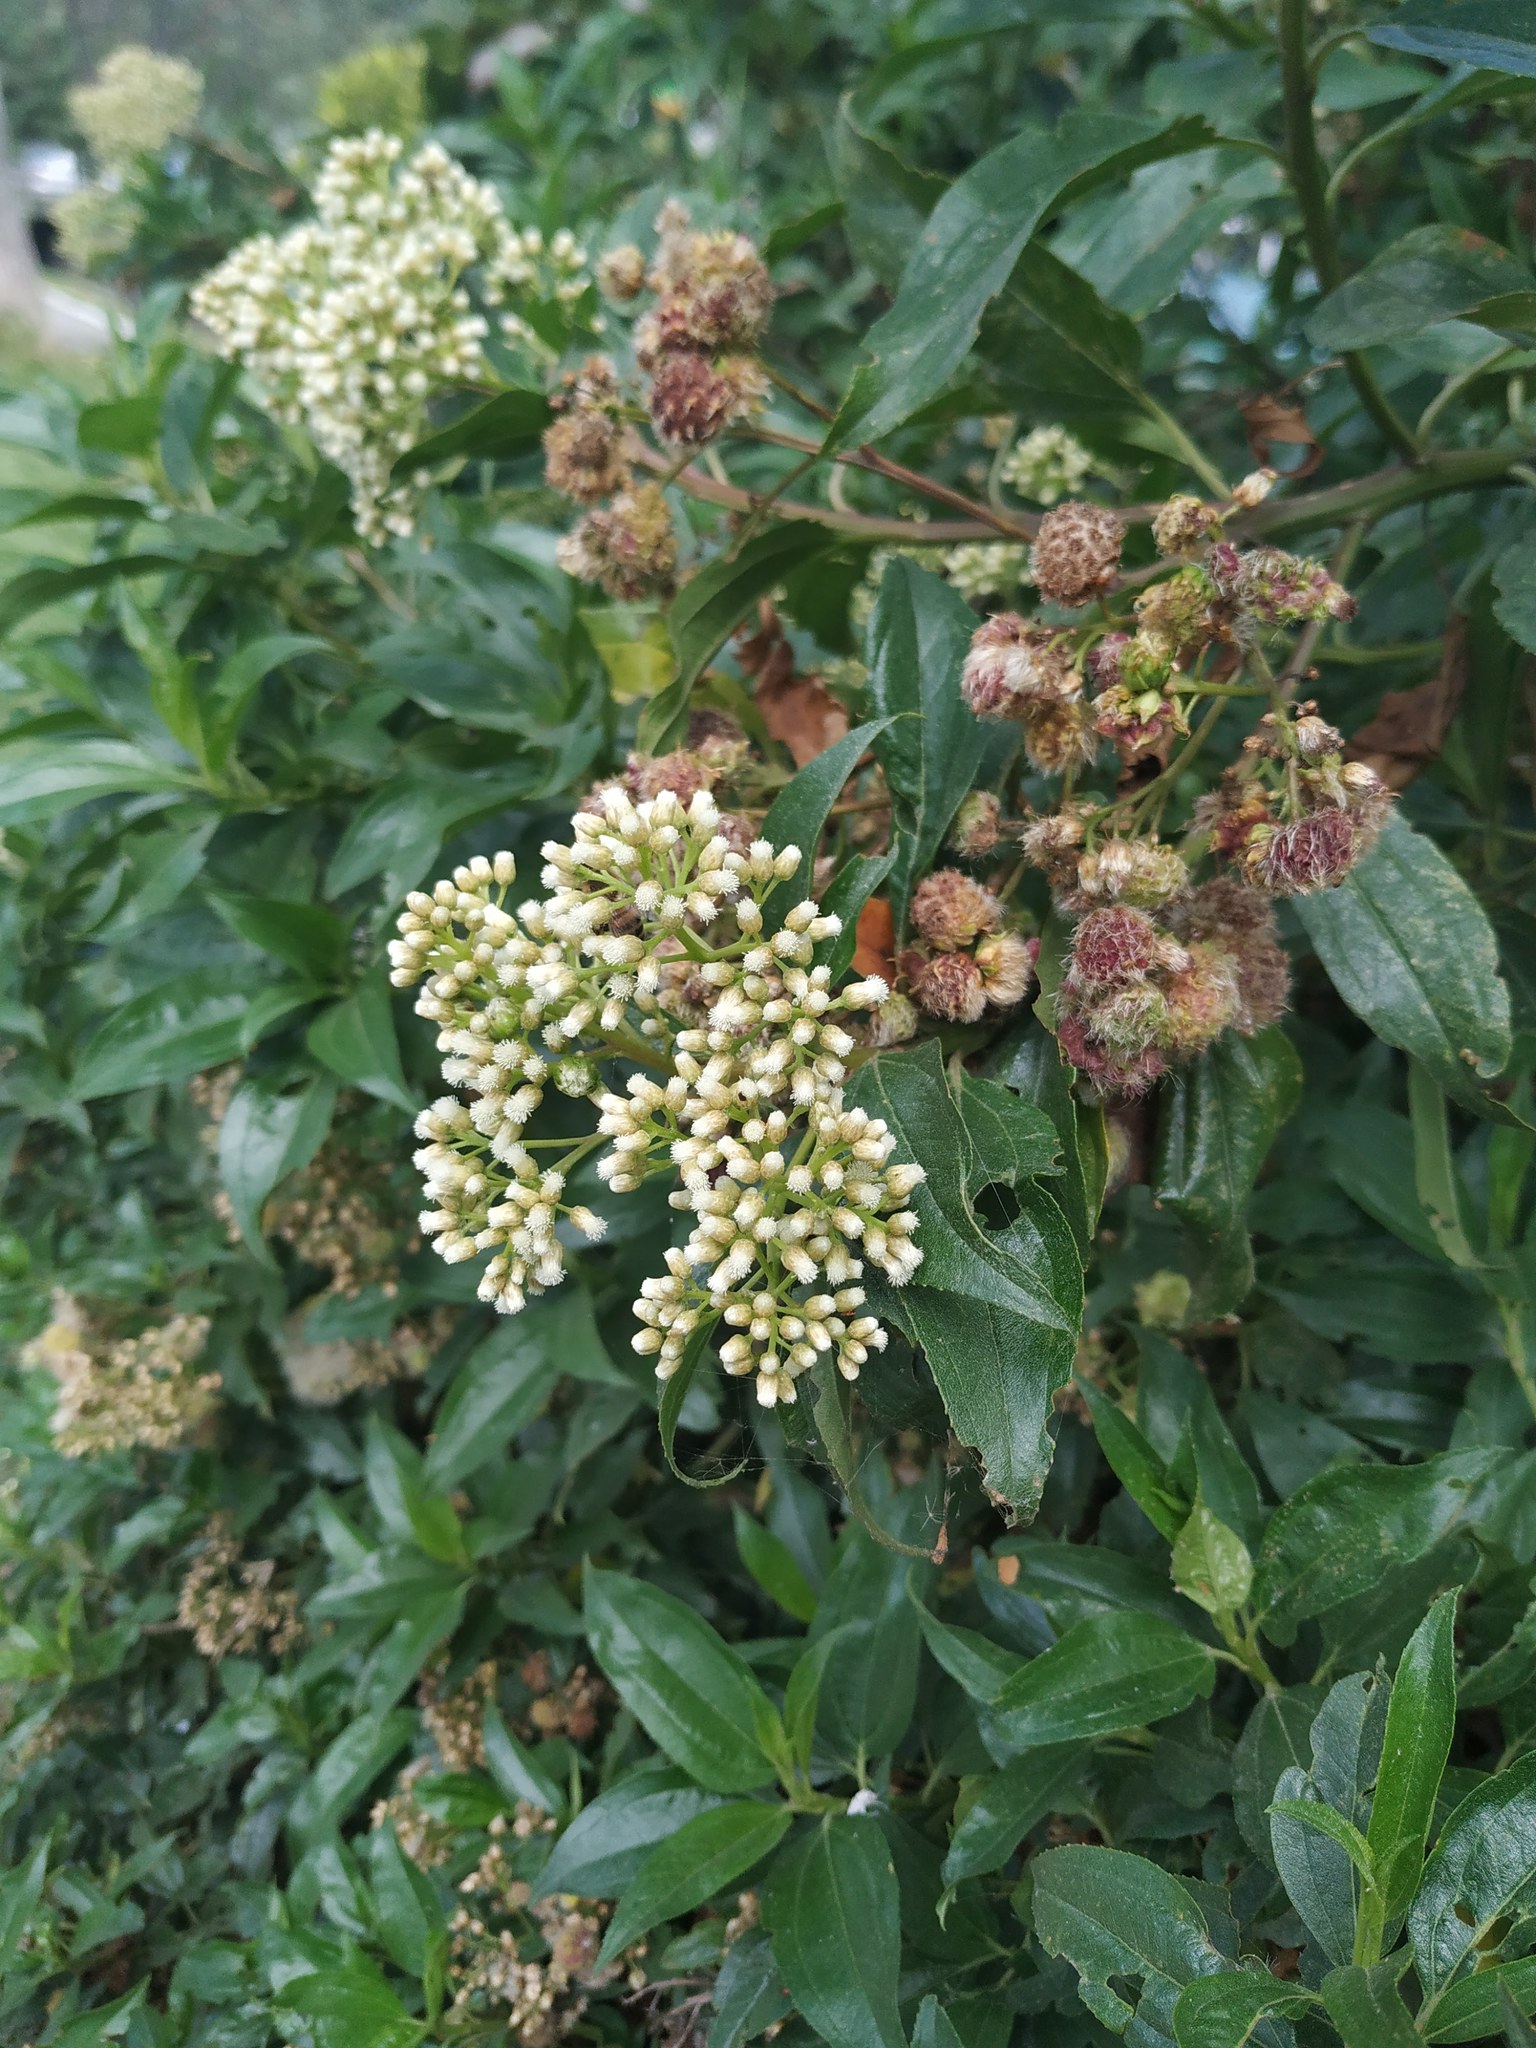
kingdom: Plantae
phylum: Tracheophyta
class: Magnoliopsida
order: Asterales
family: Asteraceae
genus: Baccharis
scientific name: Baccharis latifolia
